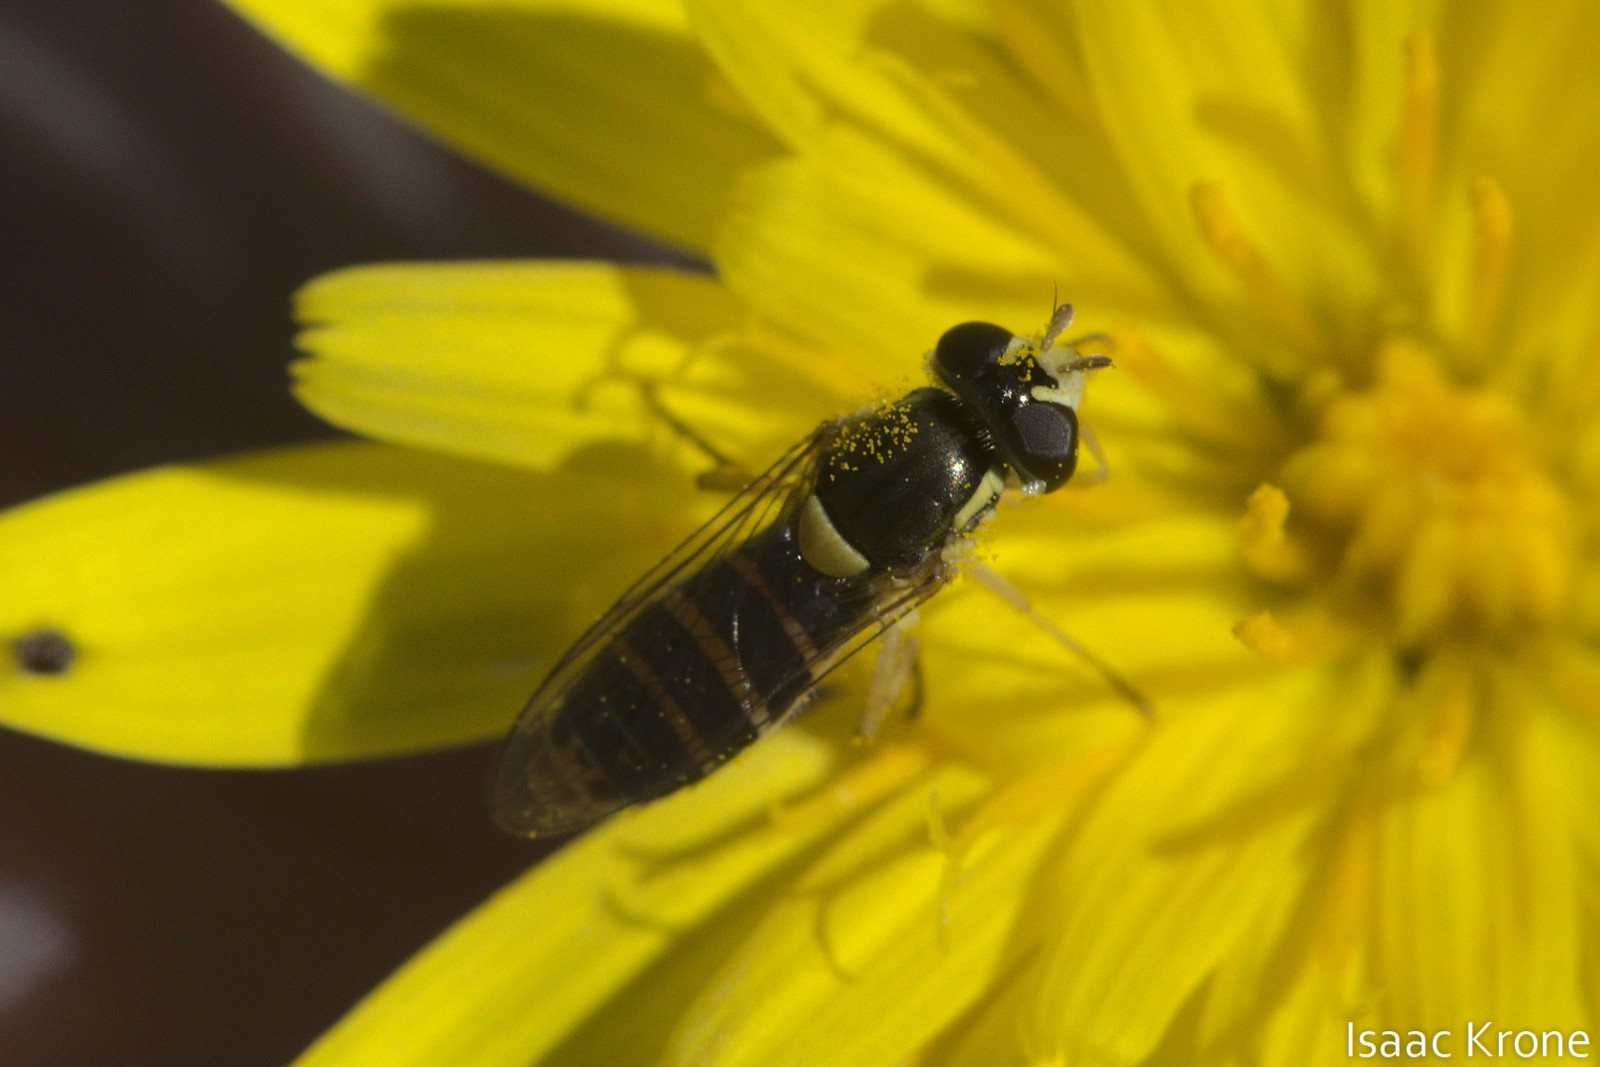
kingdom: Animalia
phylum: Arthropoda
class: Insecta
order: Diptera
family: Syrphidae
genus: Sphaerophoria
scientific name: Sphaerophoria sulphuripes
